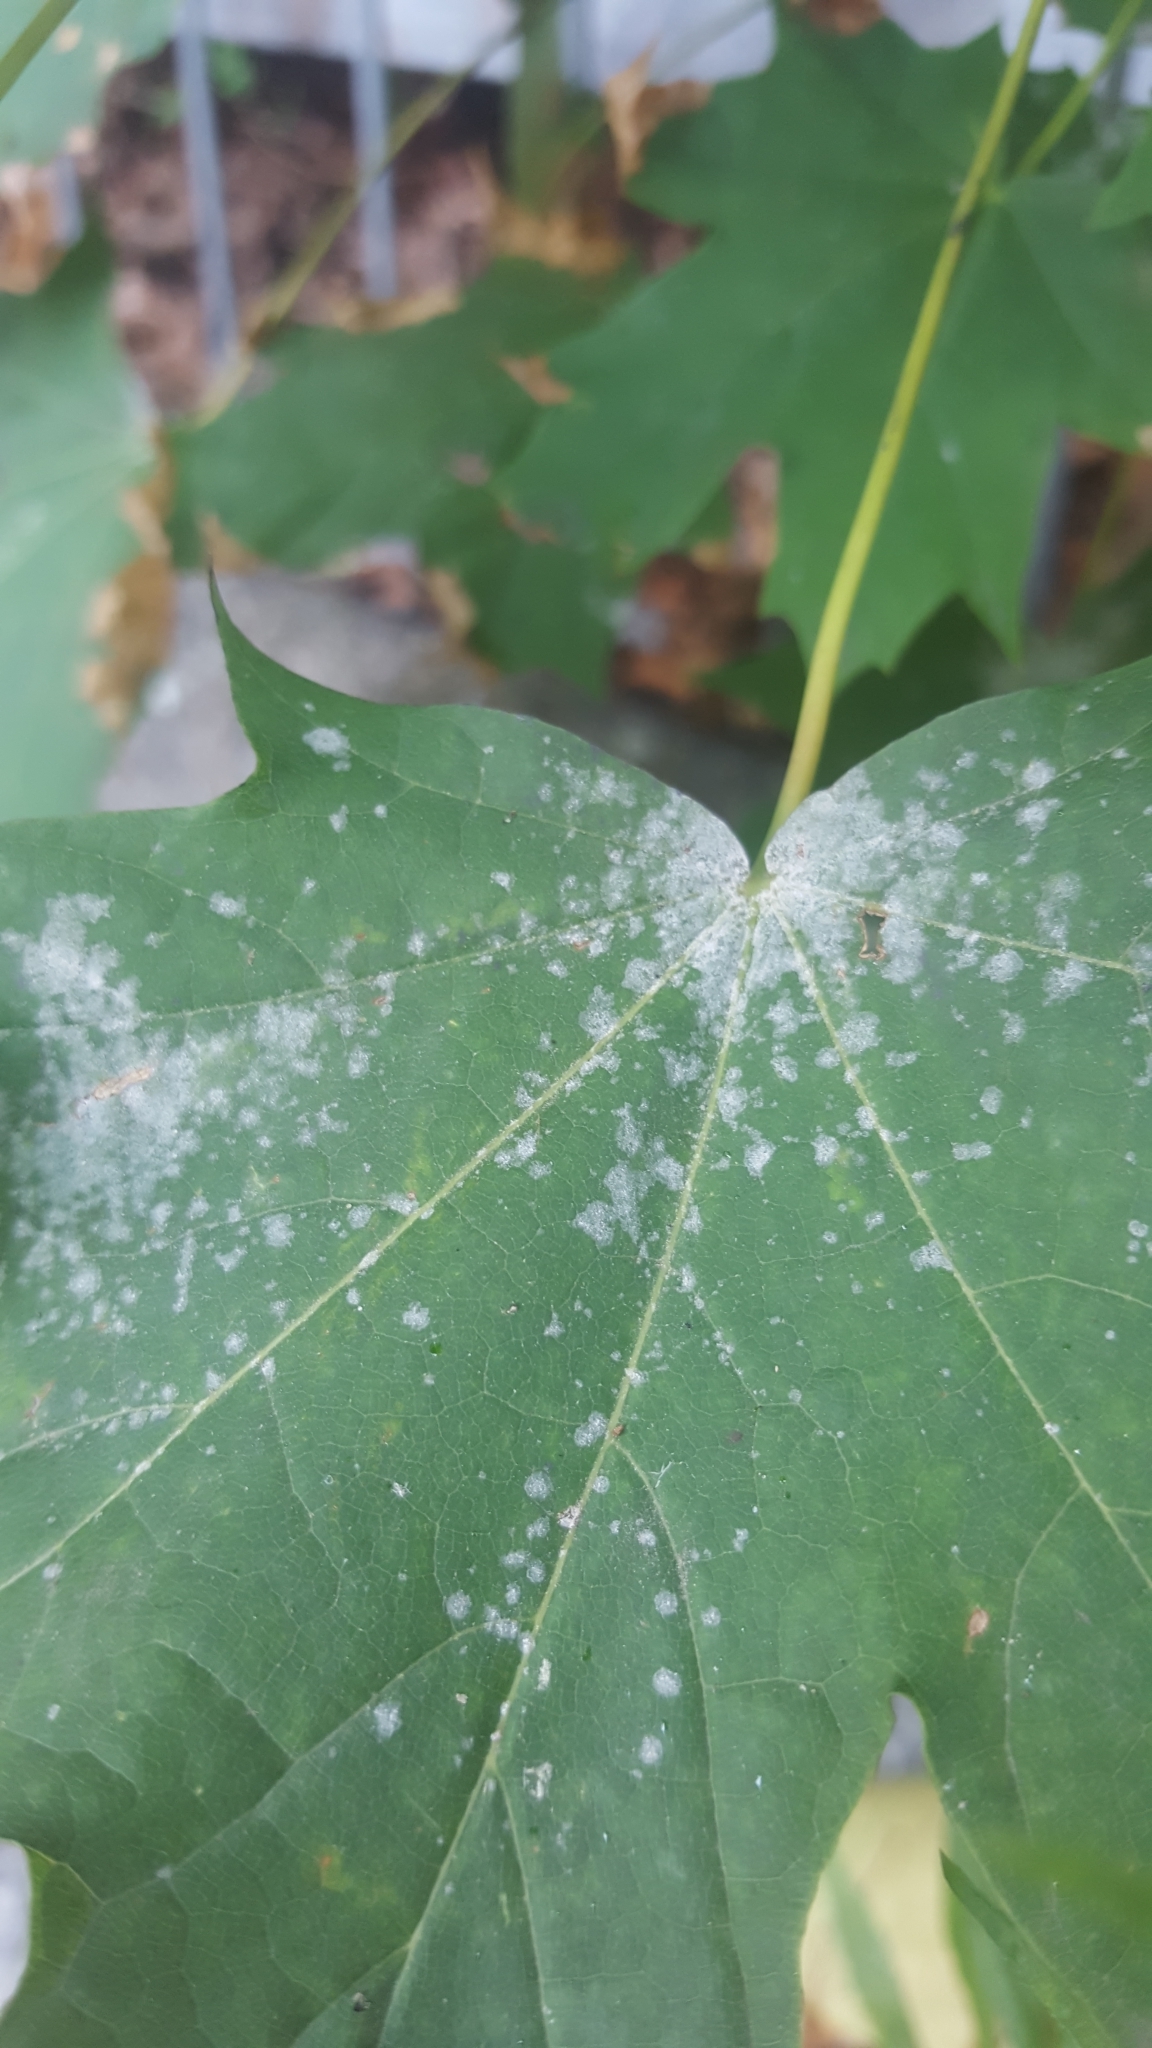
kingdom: Fungi
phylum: Ascomycota
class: Leotiomycetes
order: Helotiales
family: Erysiphaceae
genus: Sawadaea
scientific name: Sawadaea tulasnei
